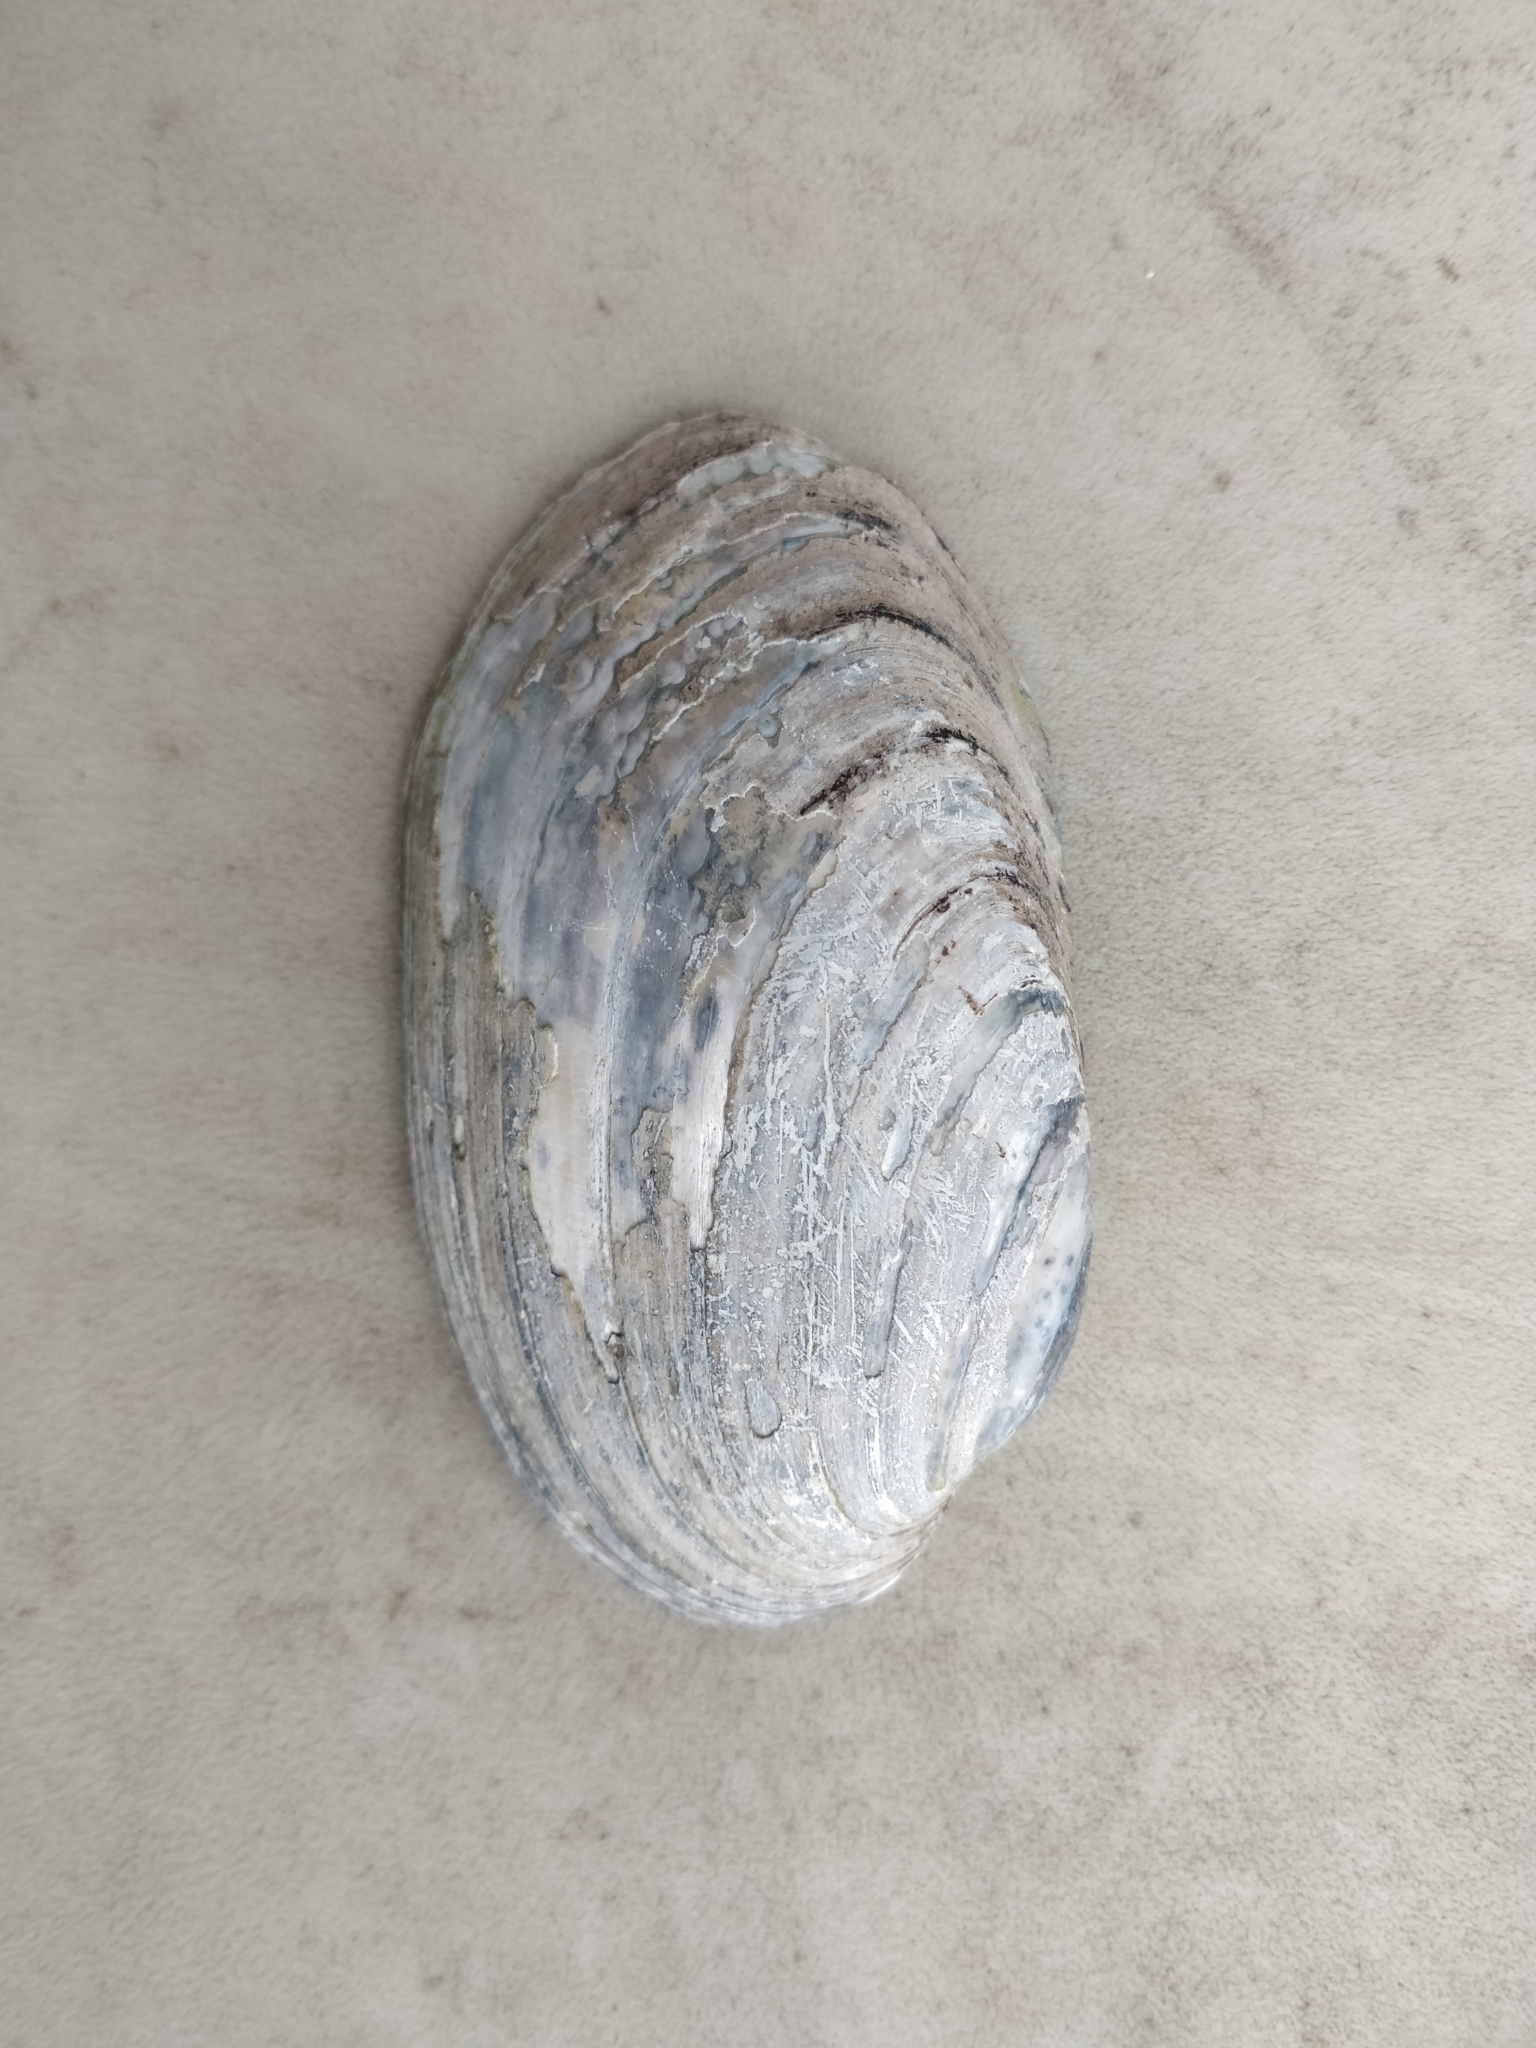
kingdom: Animalia
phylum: Mollusca
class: Bivalvia
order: Unionida
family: Unionidae
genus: Lampsilis
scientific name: Lampsilis siliquoidea
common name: Fatmucket
